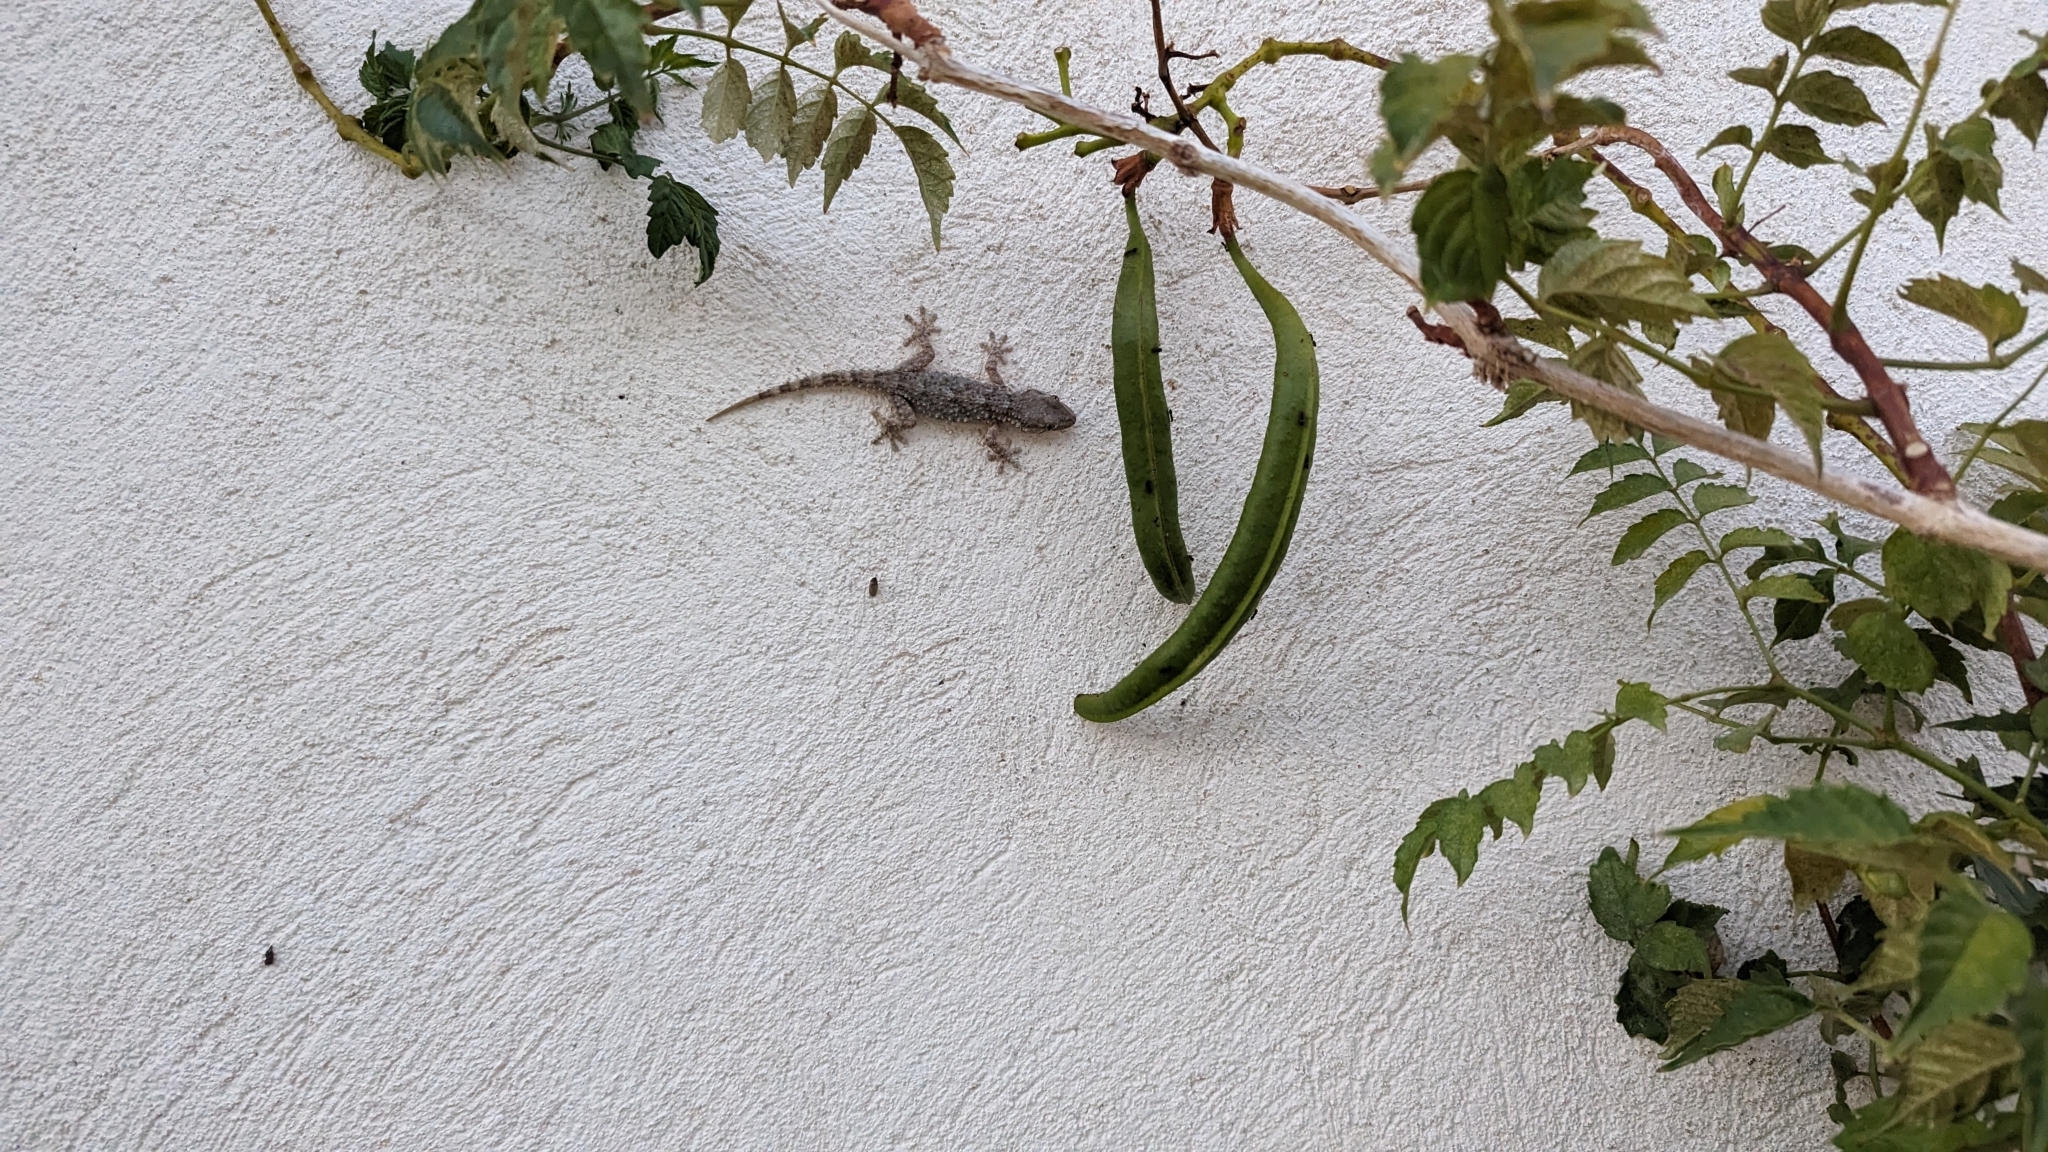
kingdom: Animalia
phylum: Chordata
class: Squamata
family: Phyllodactylidae
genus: Tarentola
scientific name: Tarentola mauritanica
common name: Moorish gecko
